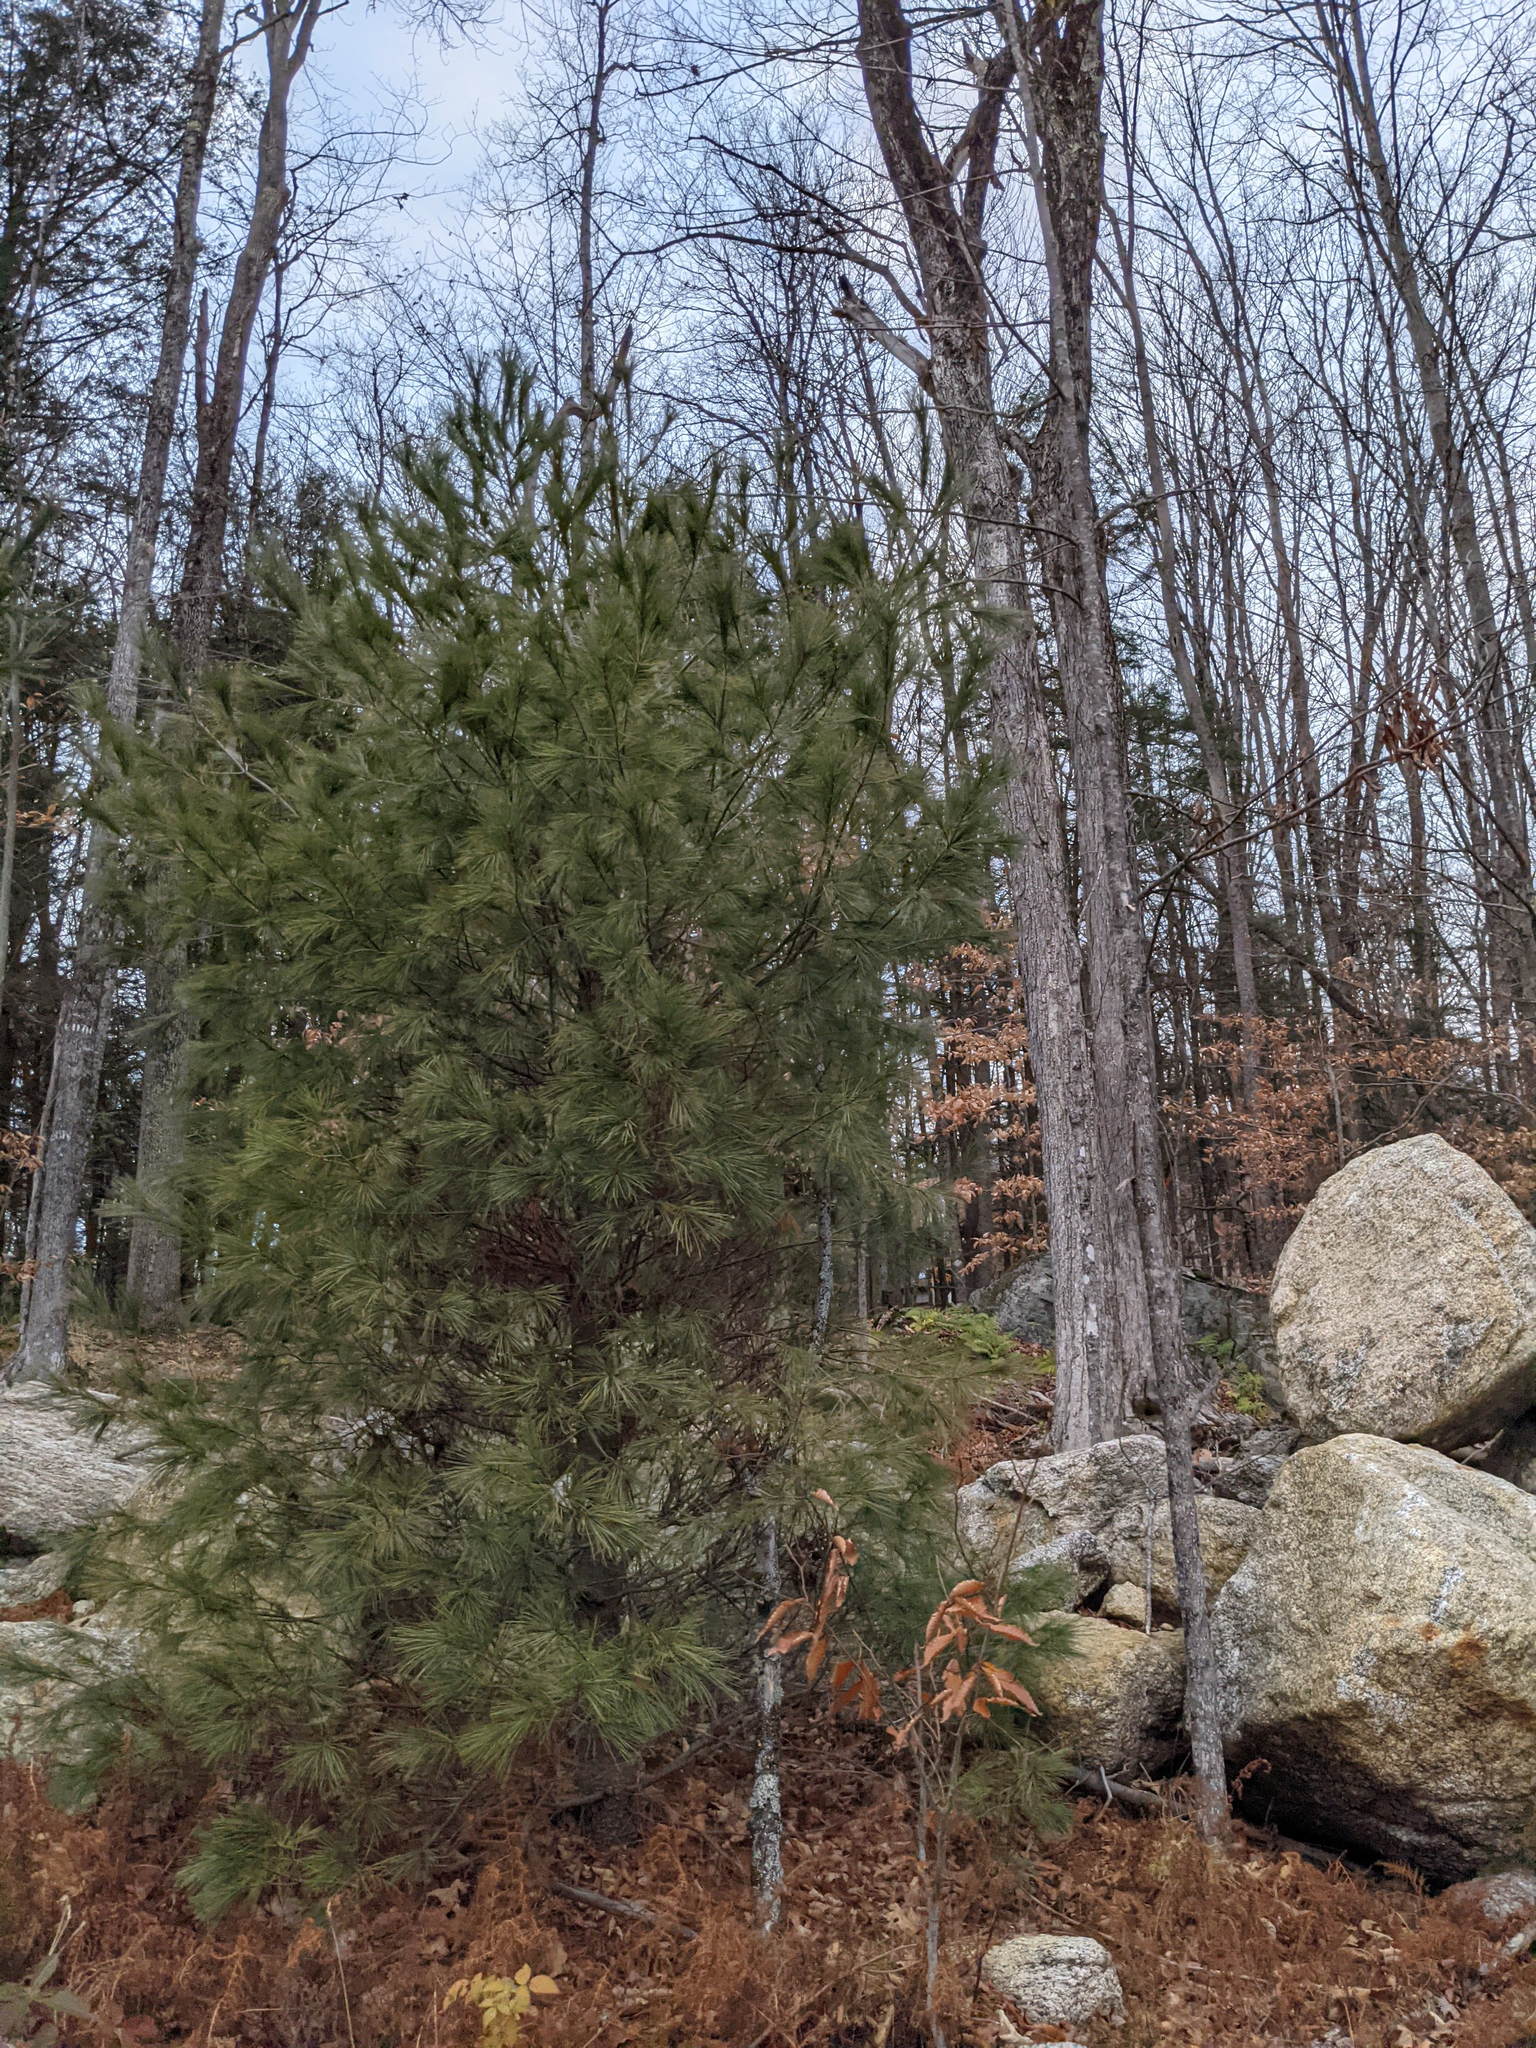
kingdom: Plantae
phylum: Tracheophyta
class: Pinopsida
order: Pinales
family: Pinaceae
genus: Pinus
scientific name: Pinus strobus
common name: Weymouth pine
